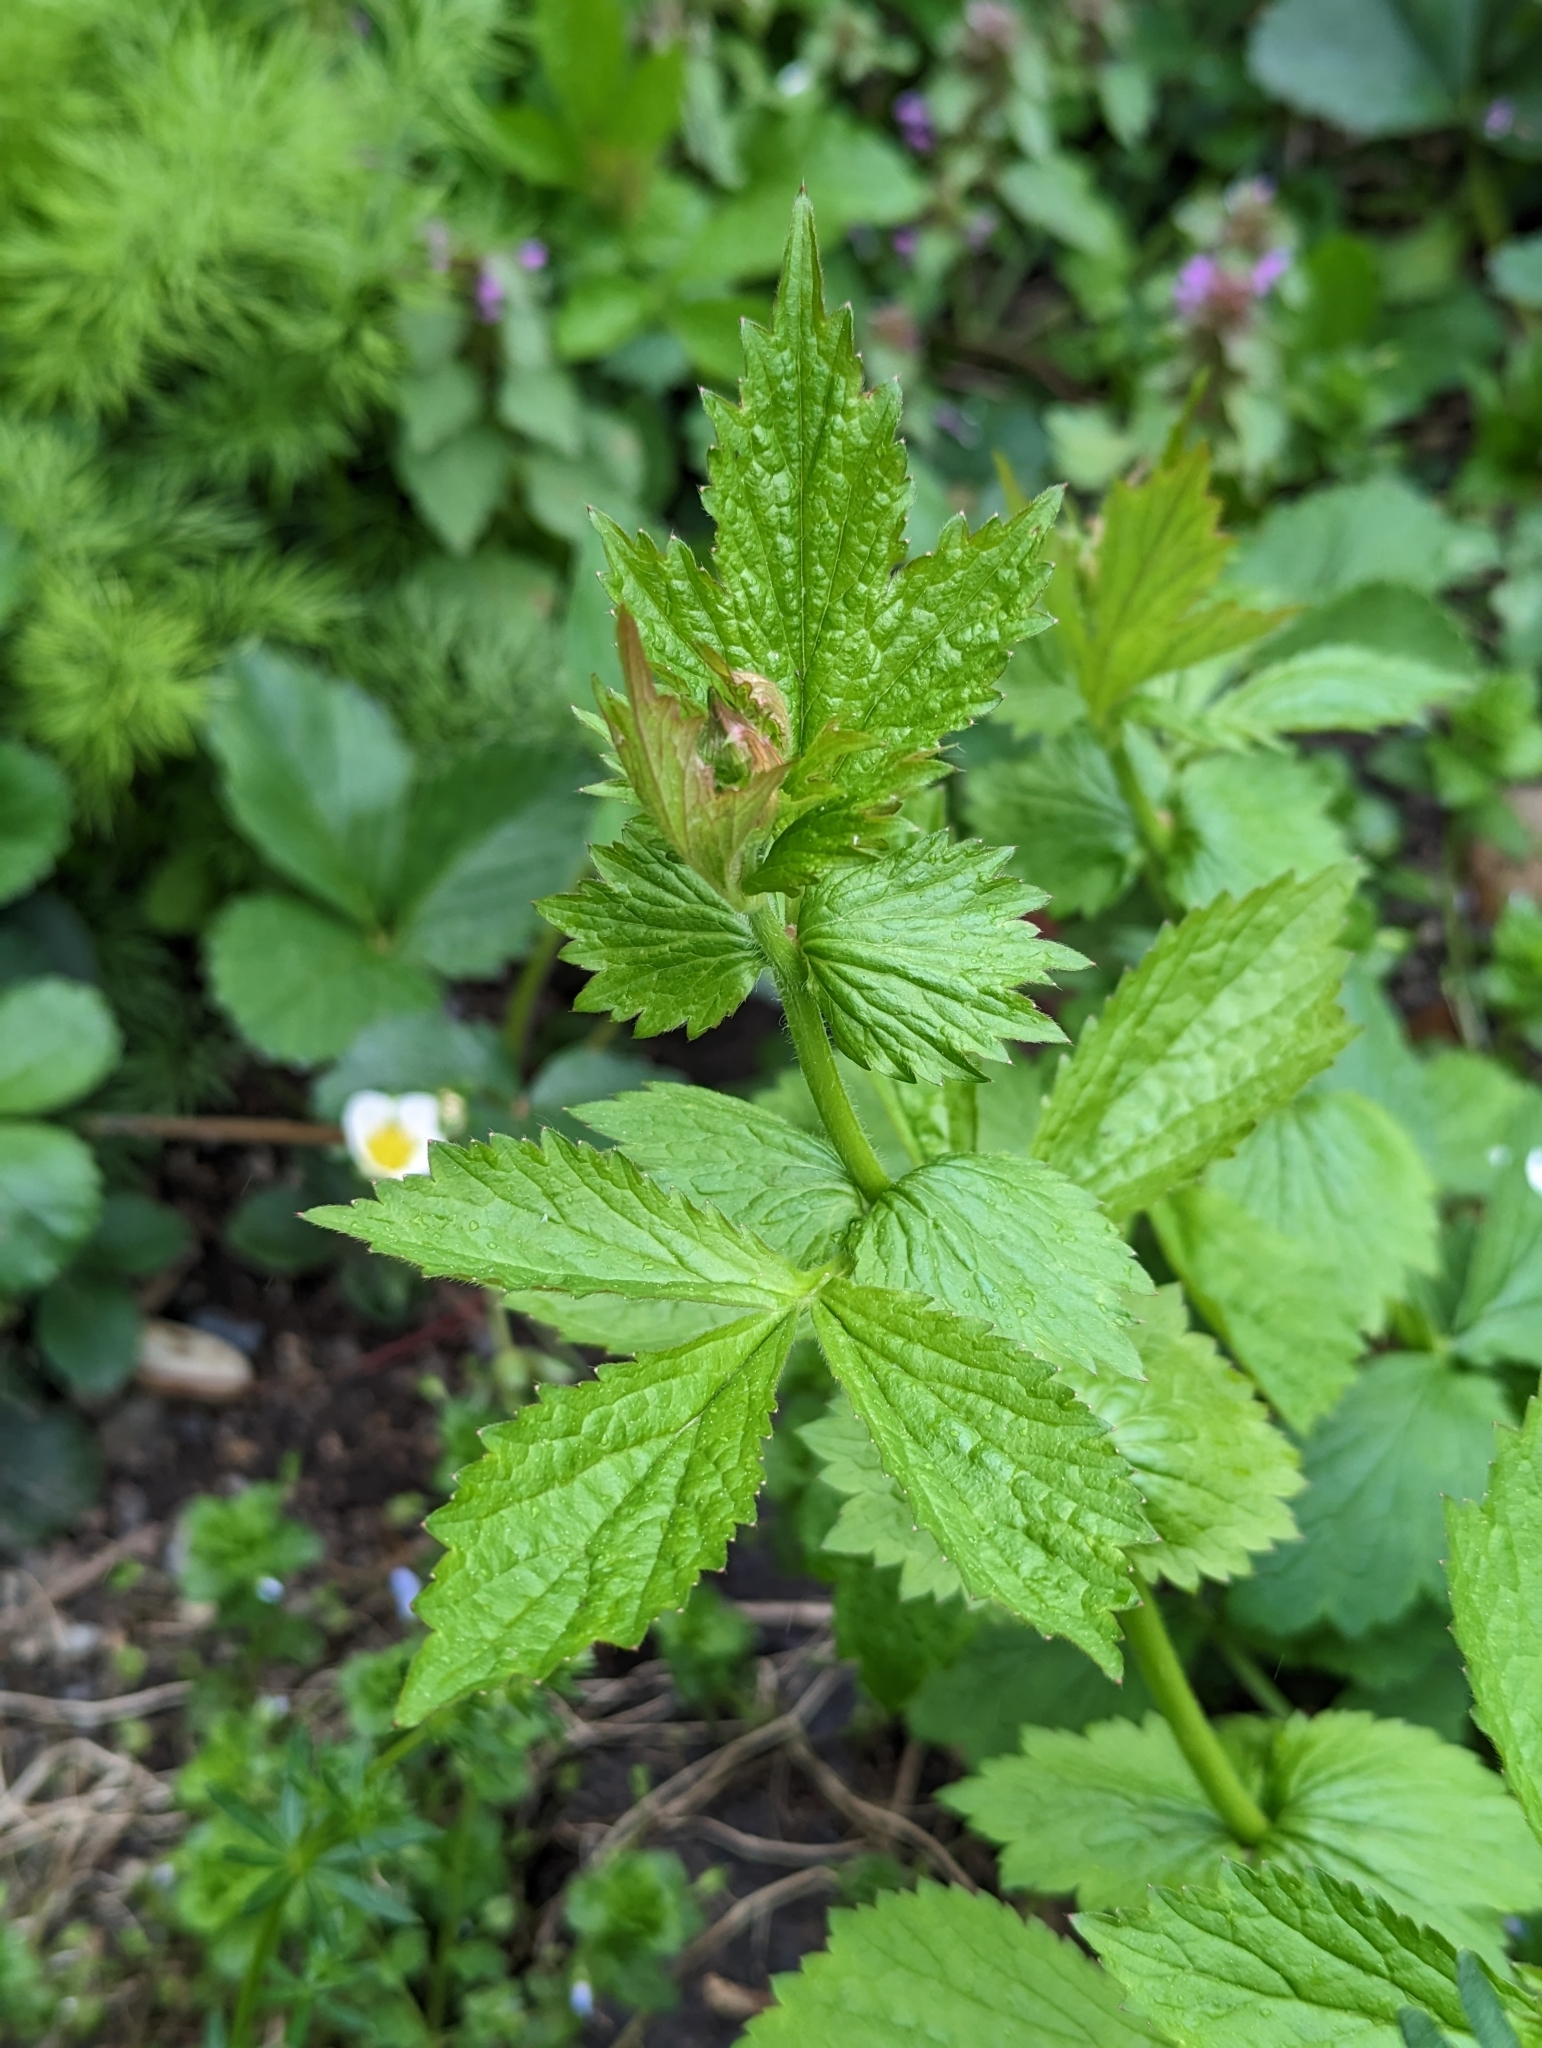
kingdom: Plantae
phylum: Tracheophyta
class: Magnoliopsida
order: Rosales
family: Rosaceae
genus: Geum
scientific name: Geum urbanum
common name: Wood avens
